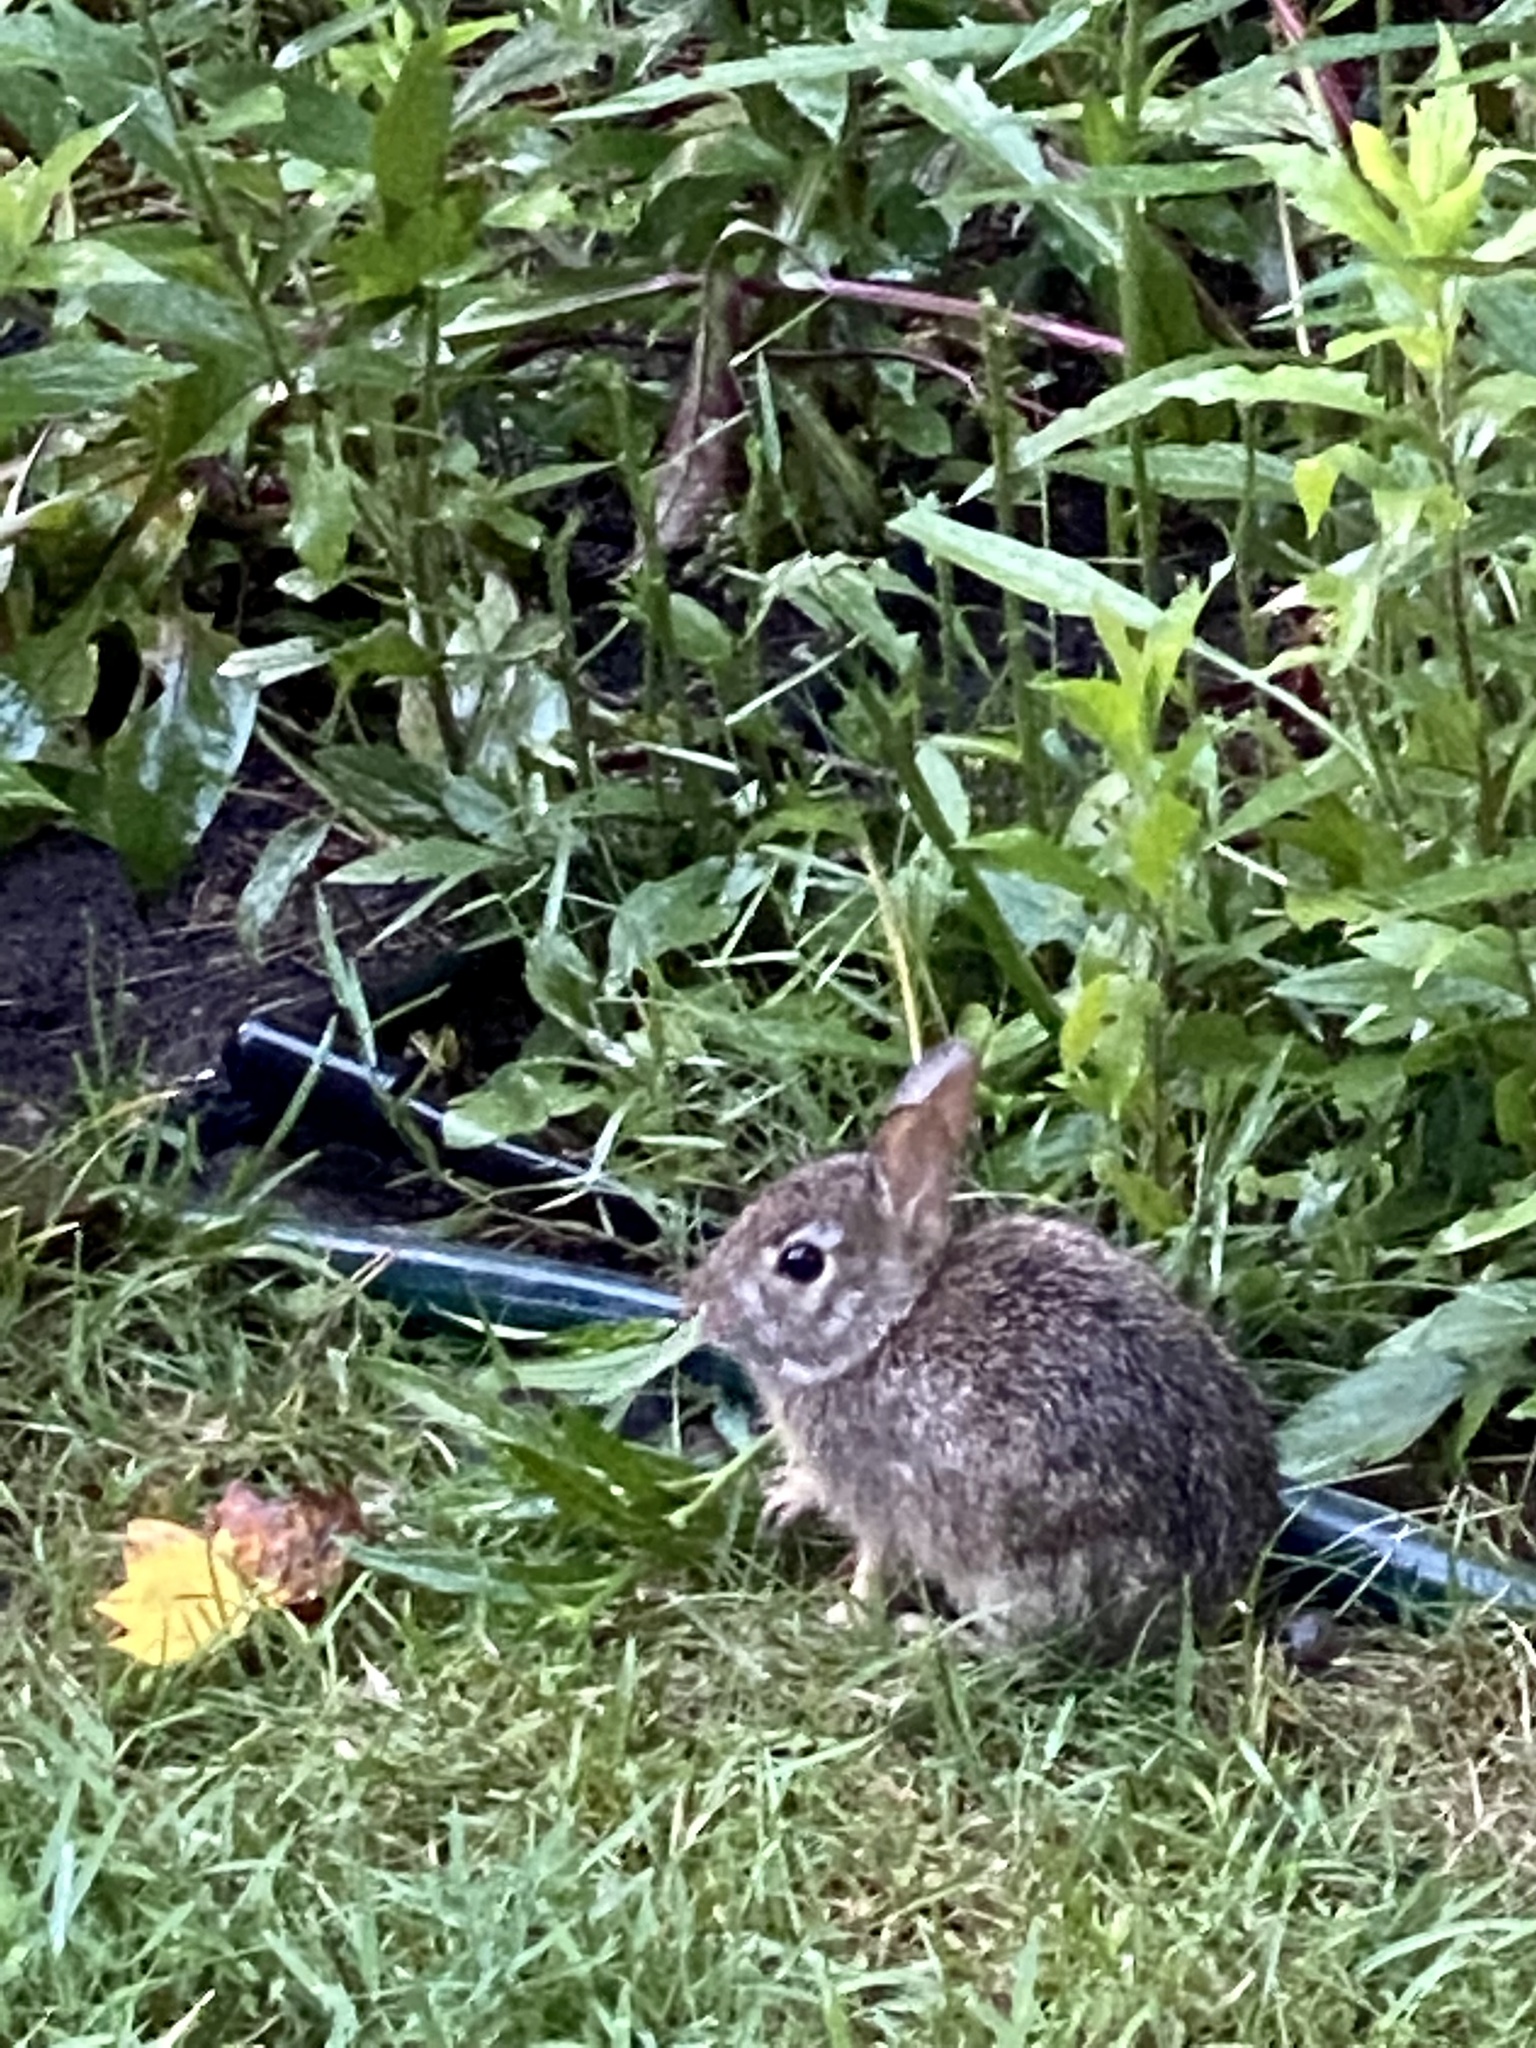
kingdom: Animalia
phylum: Chordata
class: Mammalia
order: Lagomorpha
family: Leporidae
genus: Sylvilagus
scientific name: Sylvilagus floridanus
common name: Eastern cottontail
